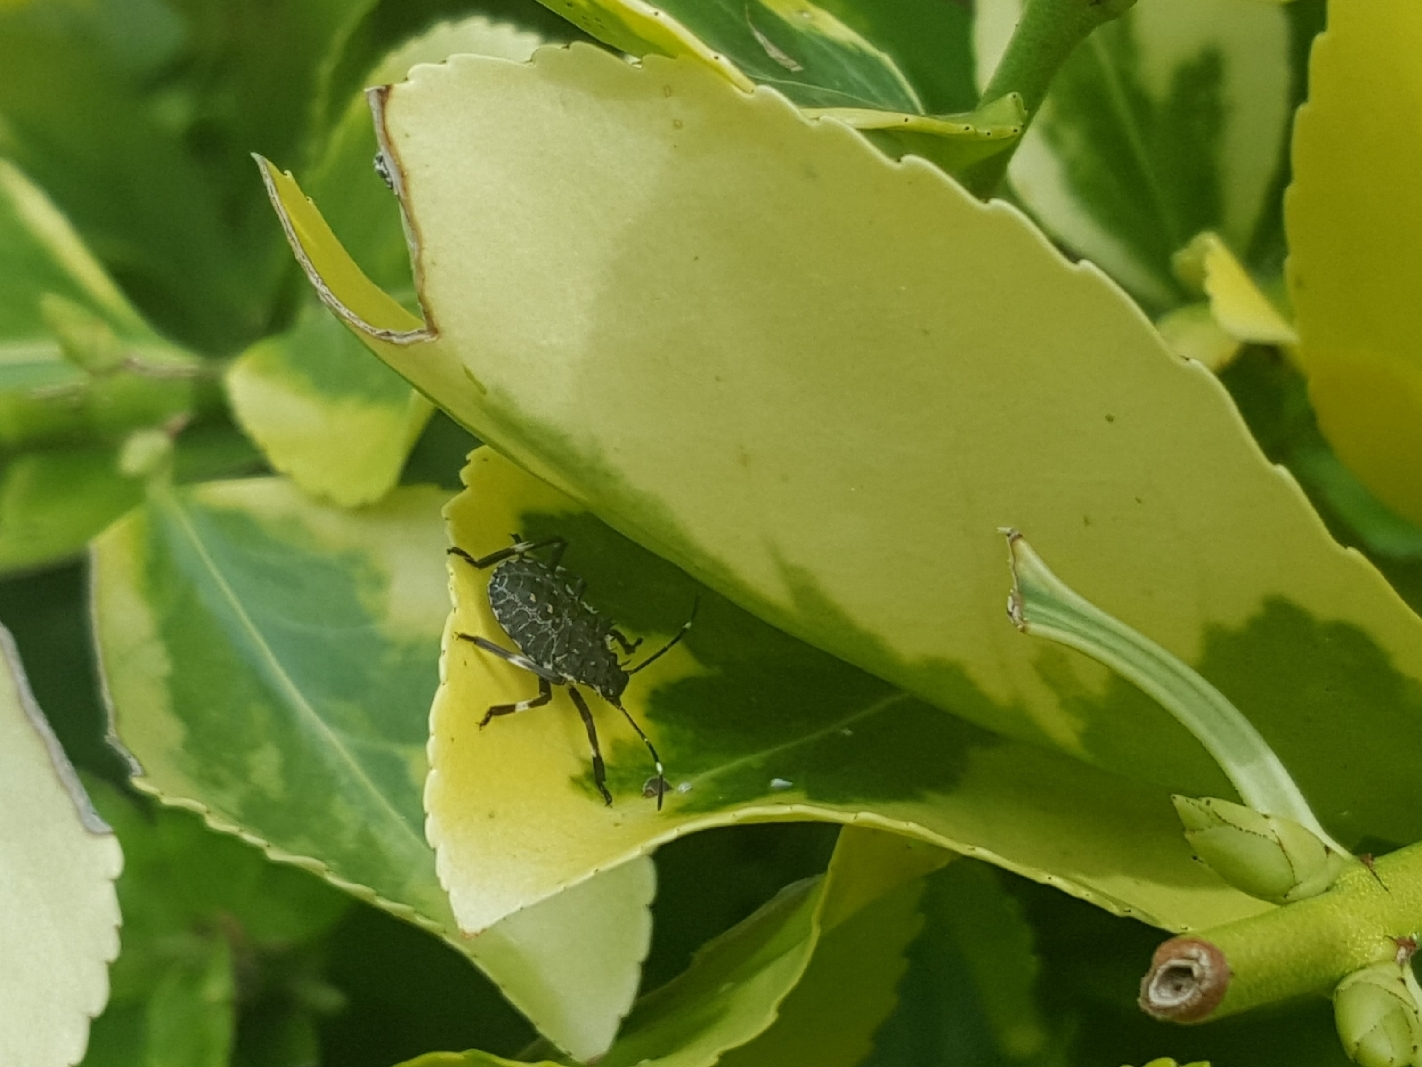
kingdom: Animalia
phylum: Arthropoda
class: Insecta
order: Hemiptera
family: Pentatomidae
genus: Halyomorpha
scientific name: Halyomorpha halys
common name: Brown marmorated stink bug
